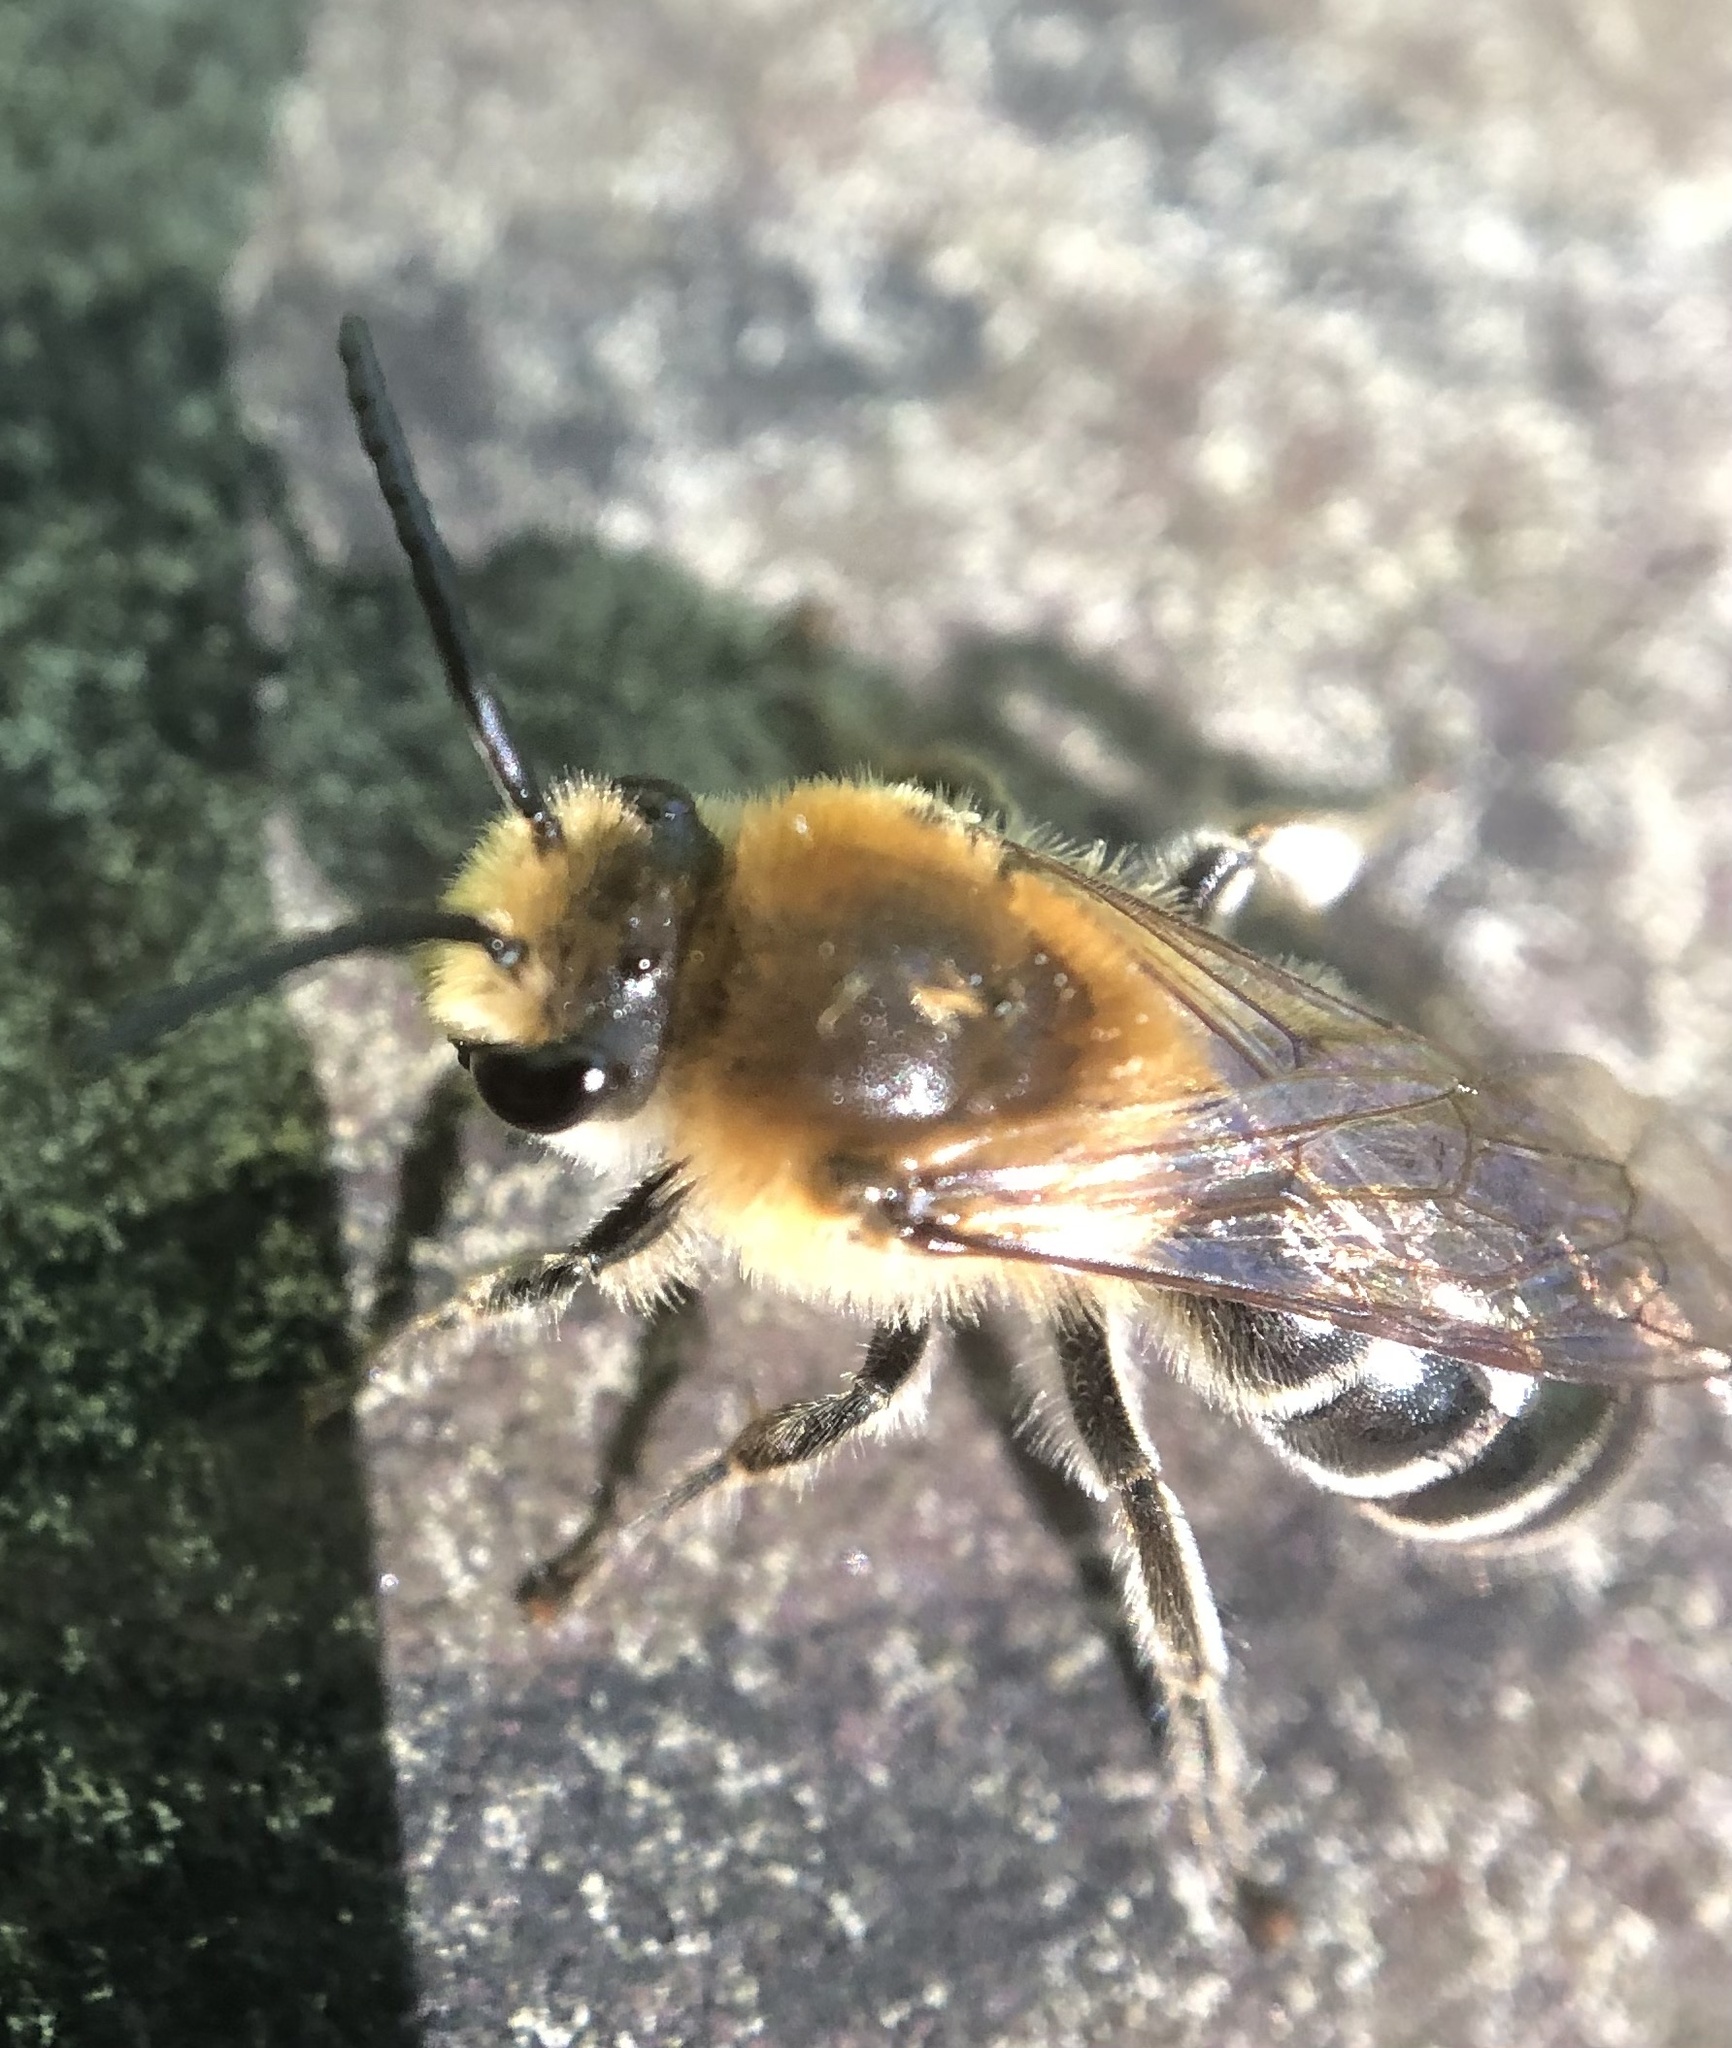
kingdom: Animalia
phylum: Arthropoda
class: Insecta
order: Hymenoptera
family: Colletidae
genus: Colletes
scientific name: Colletes thoracicus
